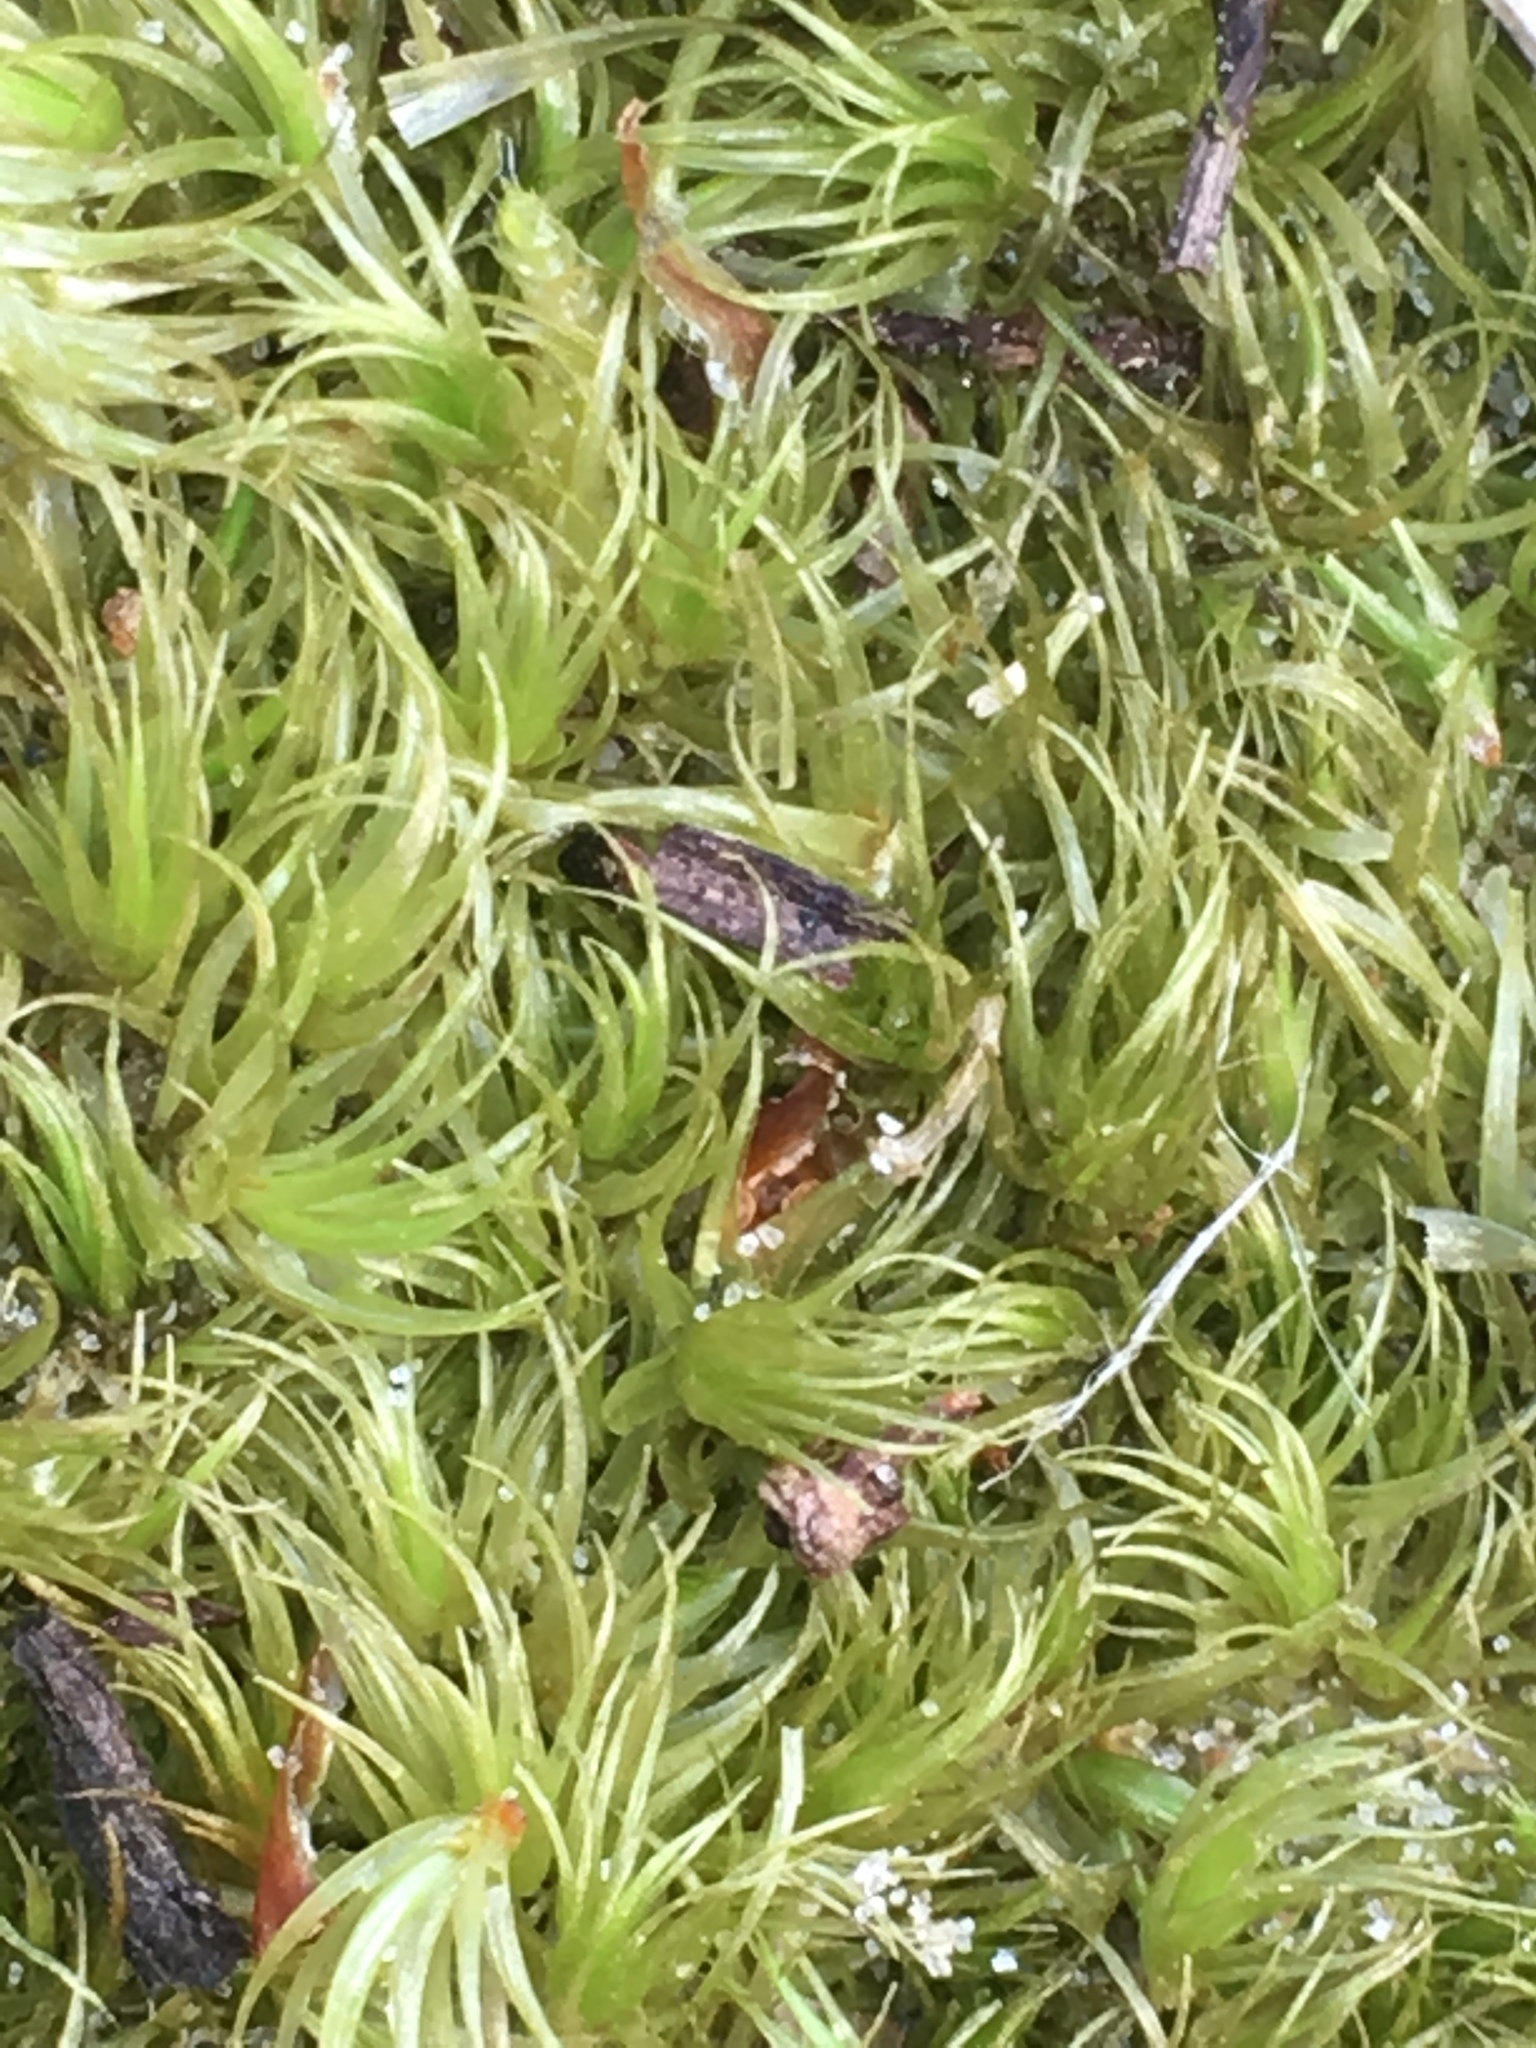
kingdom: Plantae
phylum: Bryophyta
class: Bryopsida
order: Dicranales
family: Dicranaceae
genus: Dicranum
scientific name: Dicranum scoparium
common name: Broom fork-moss
